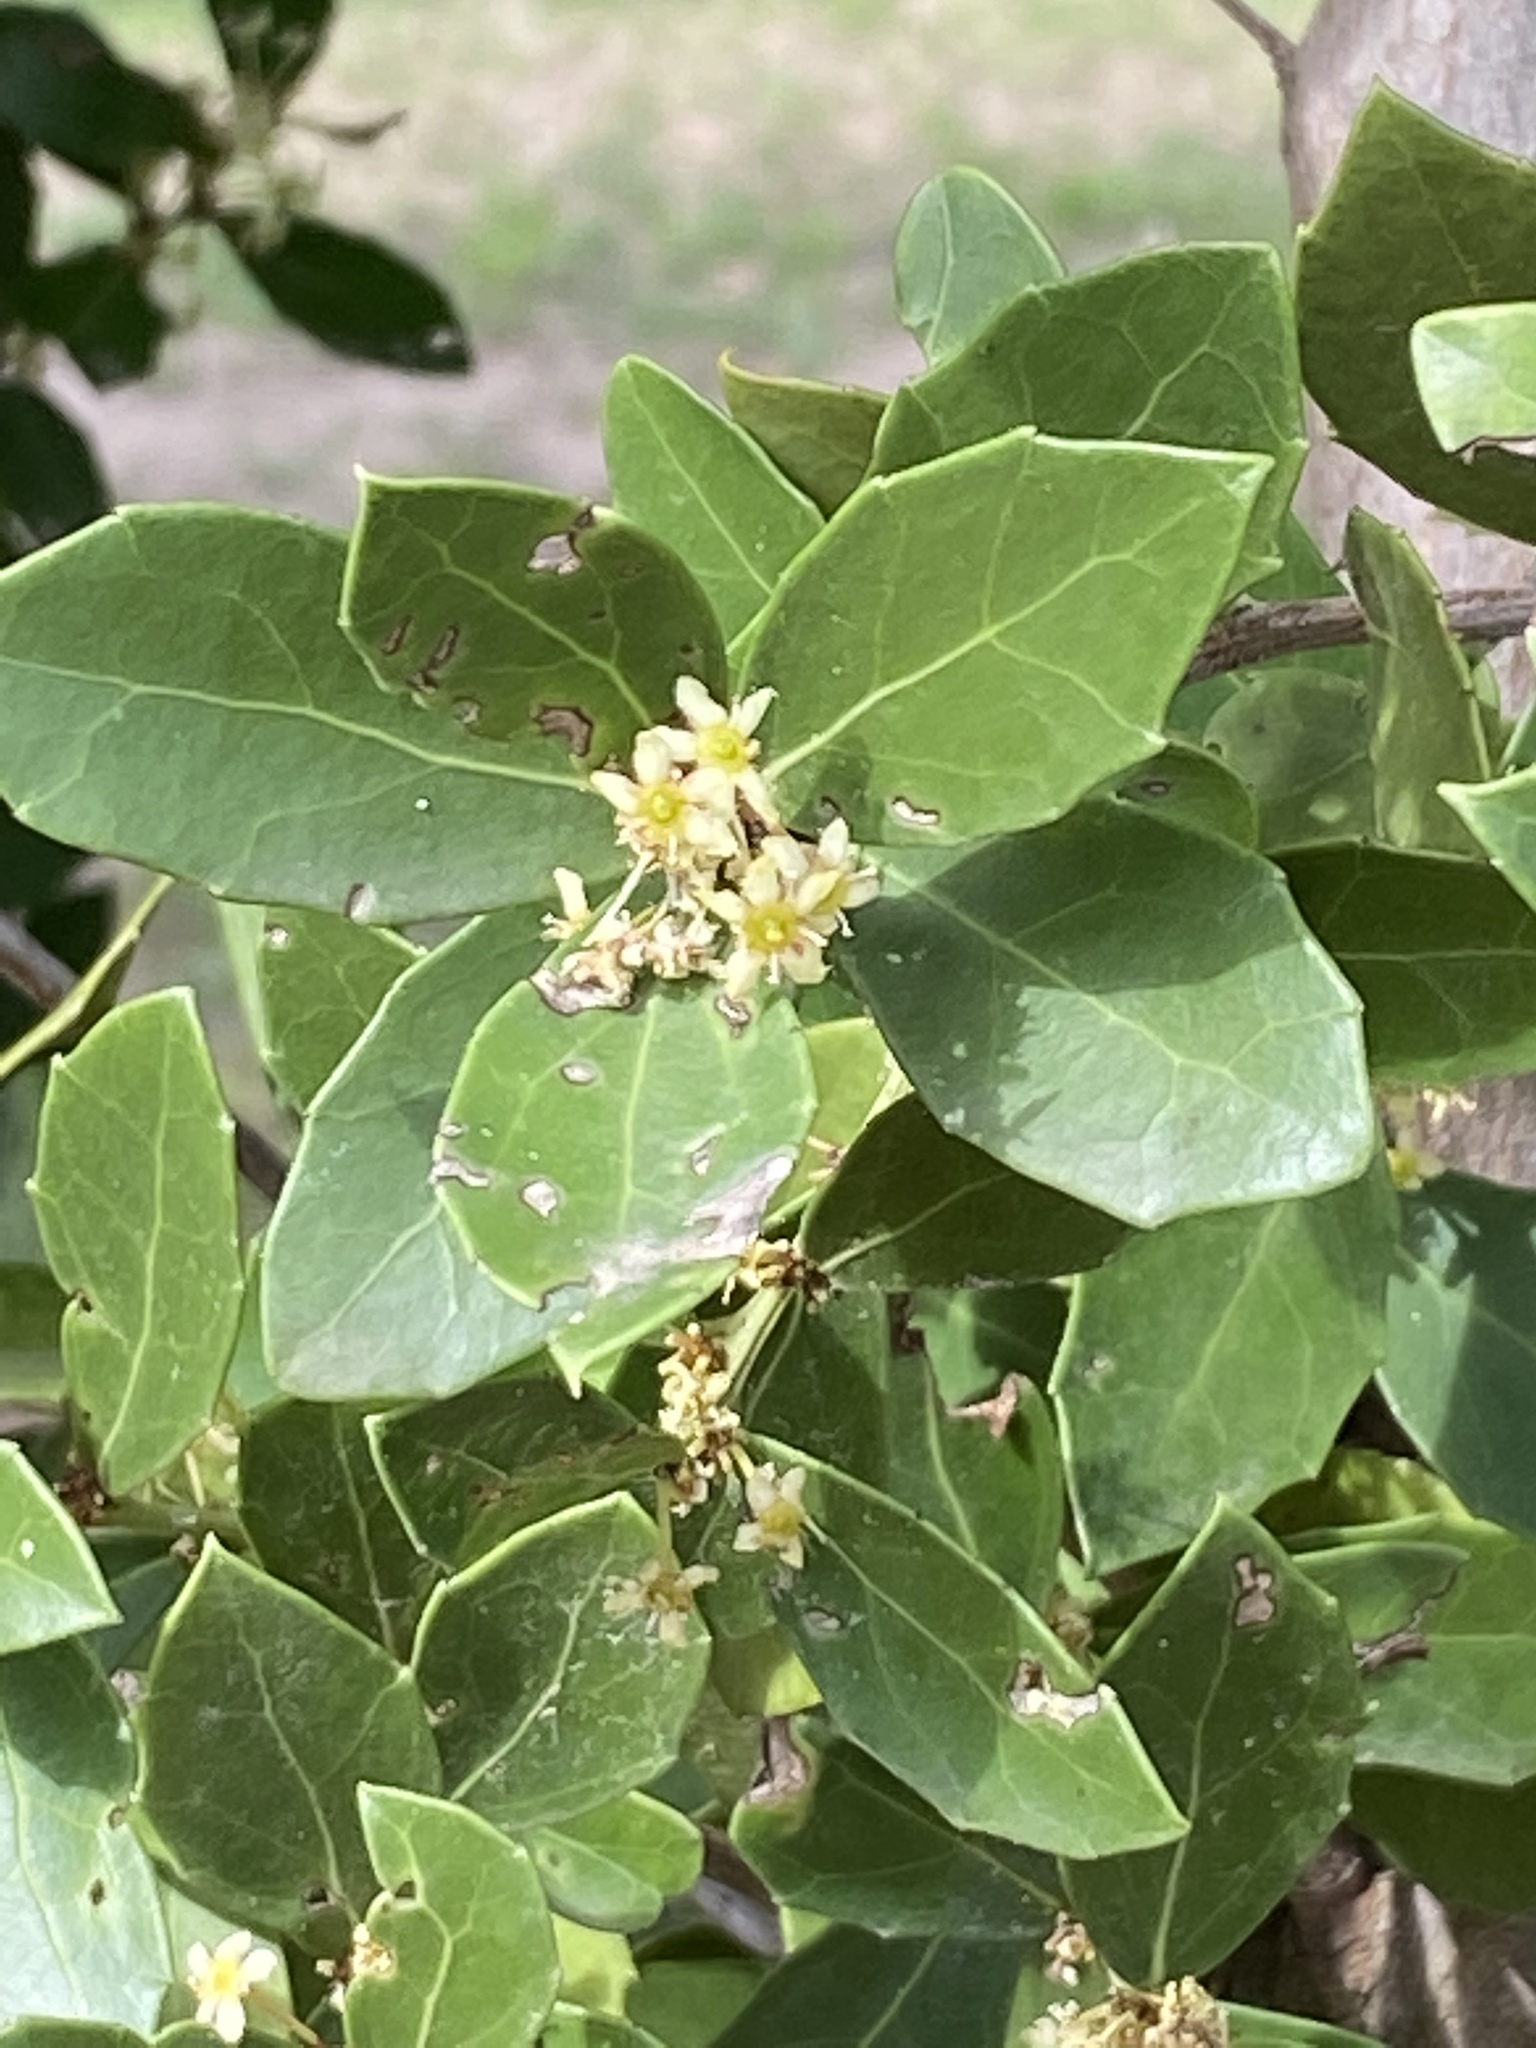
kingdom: Plantae
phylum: Tracheophyta
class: Magnoliopsida
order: Celastrales
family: Celastraceae
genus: Gymnosporia
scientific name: Gymnosporia procumbens
